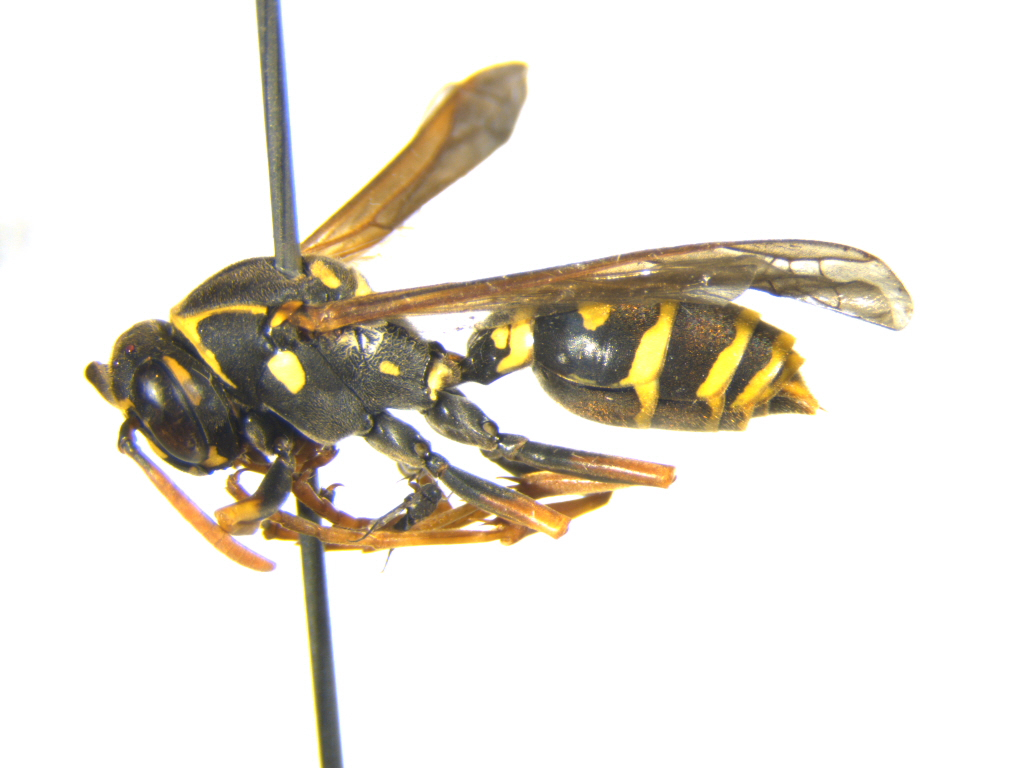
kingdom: Animalia
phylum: Arthropoda
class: Insecta
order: Hymenoptera
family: Eumenidae
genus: Polistes
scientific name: Polistes chinensis
